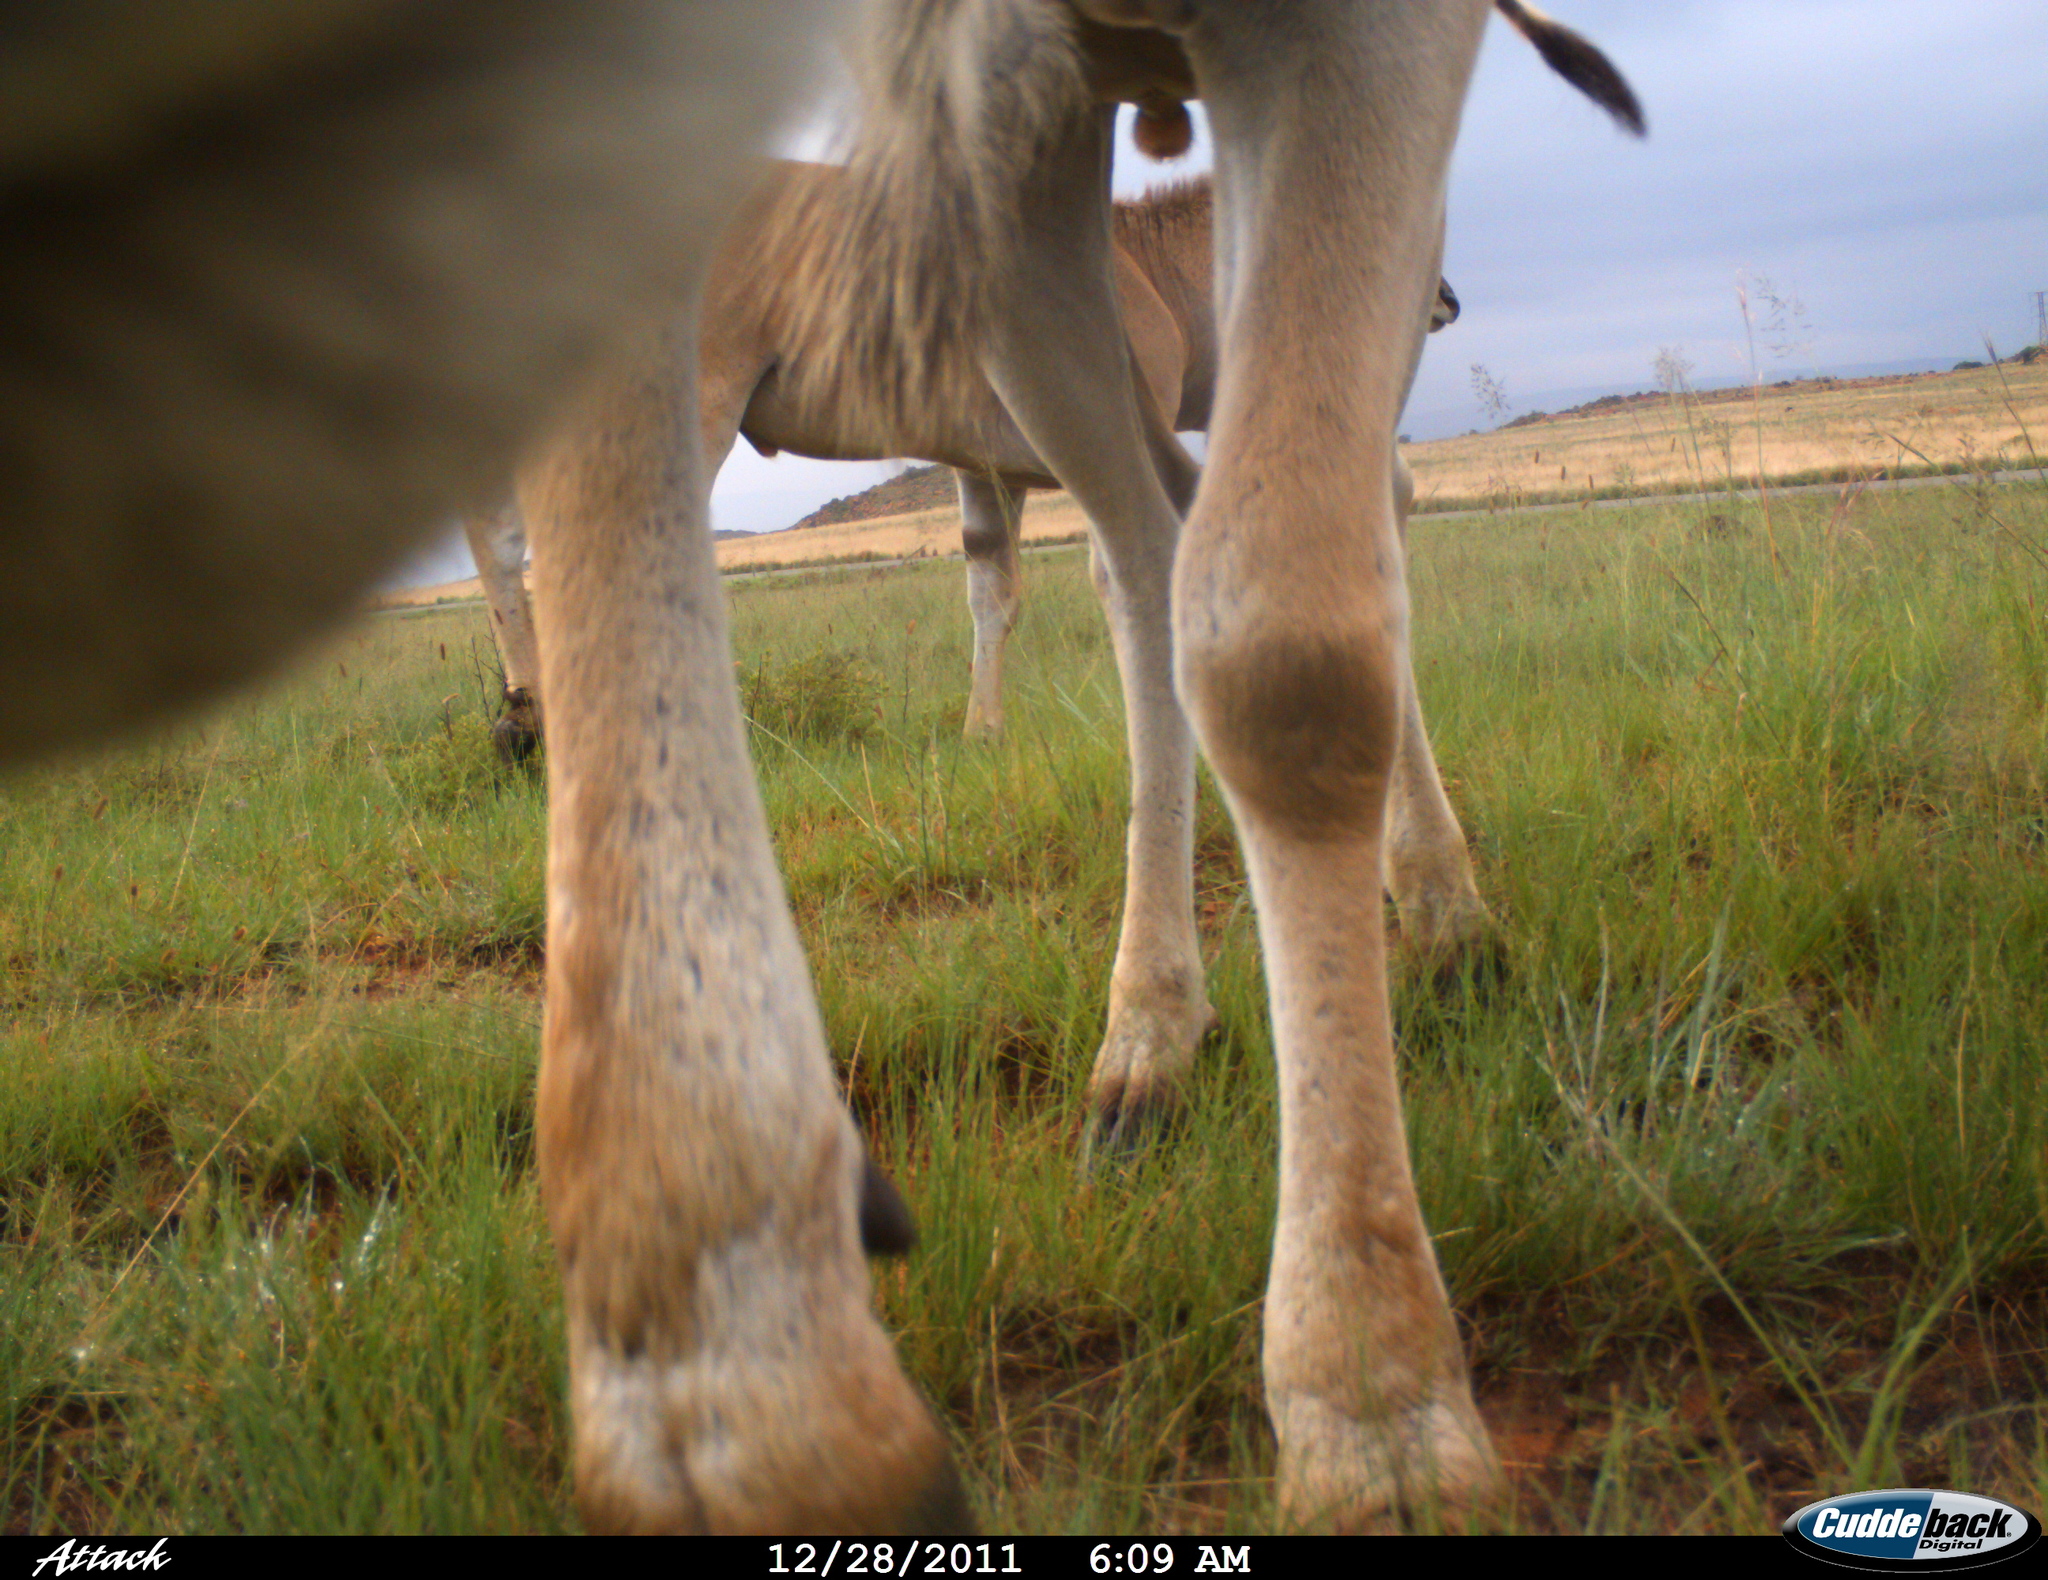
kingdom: Animalia
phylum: Chordata
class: Mammalia
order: Artiodactyla
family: Bovidae
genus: Taurotragus
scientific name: Taurotragus oryx
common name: Common eland
